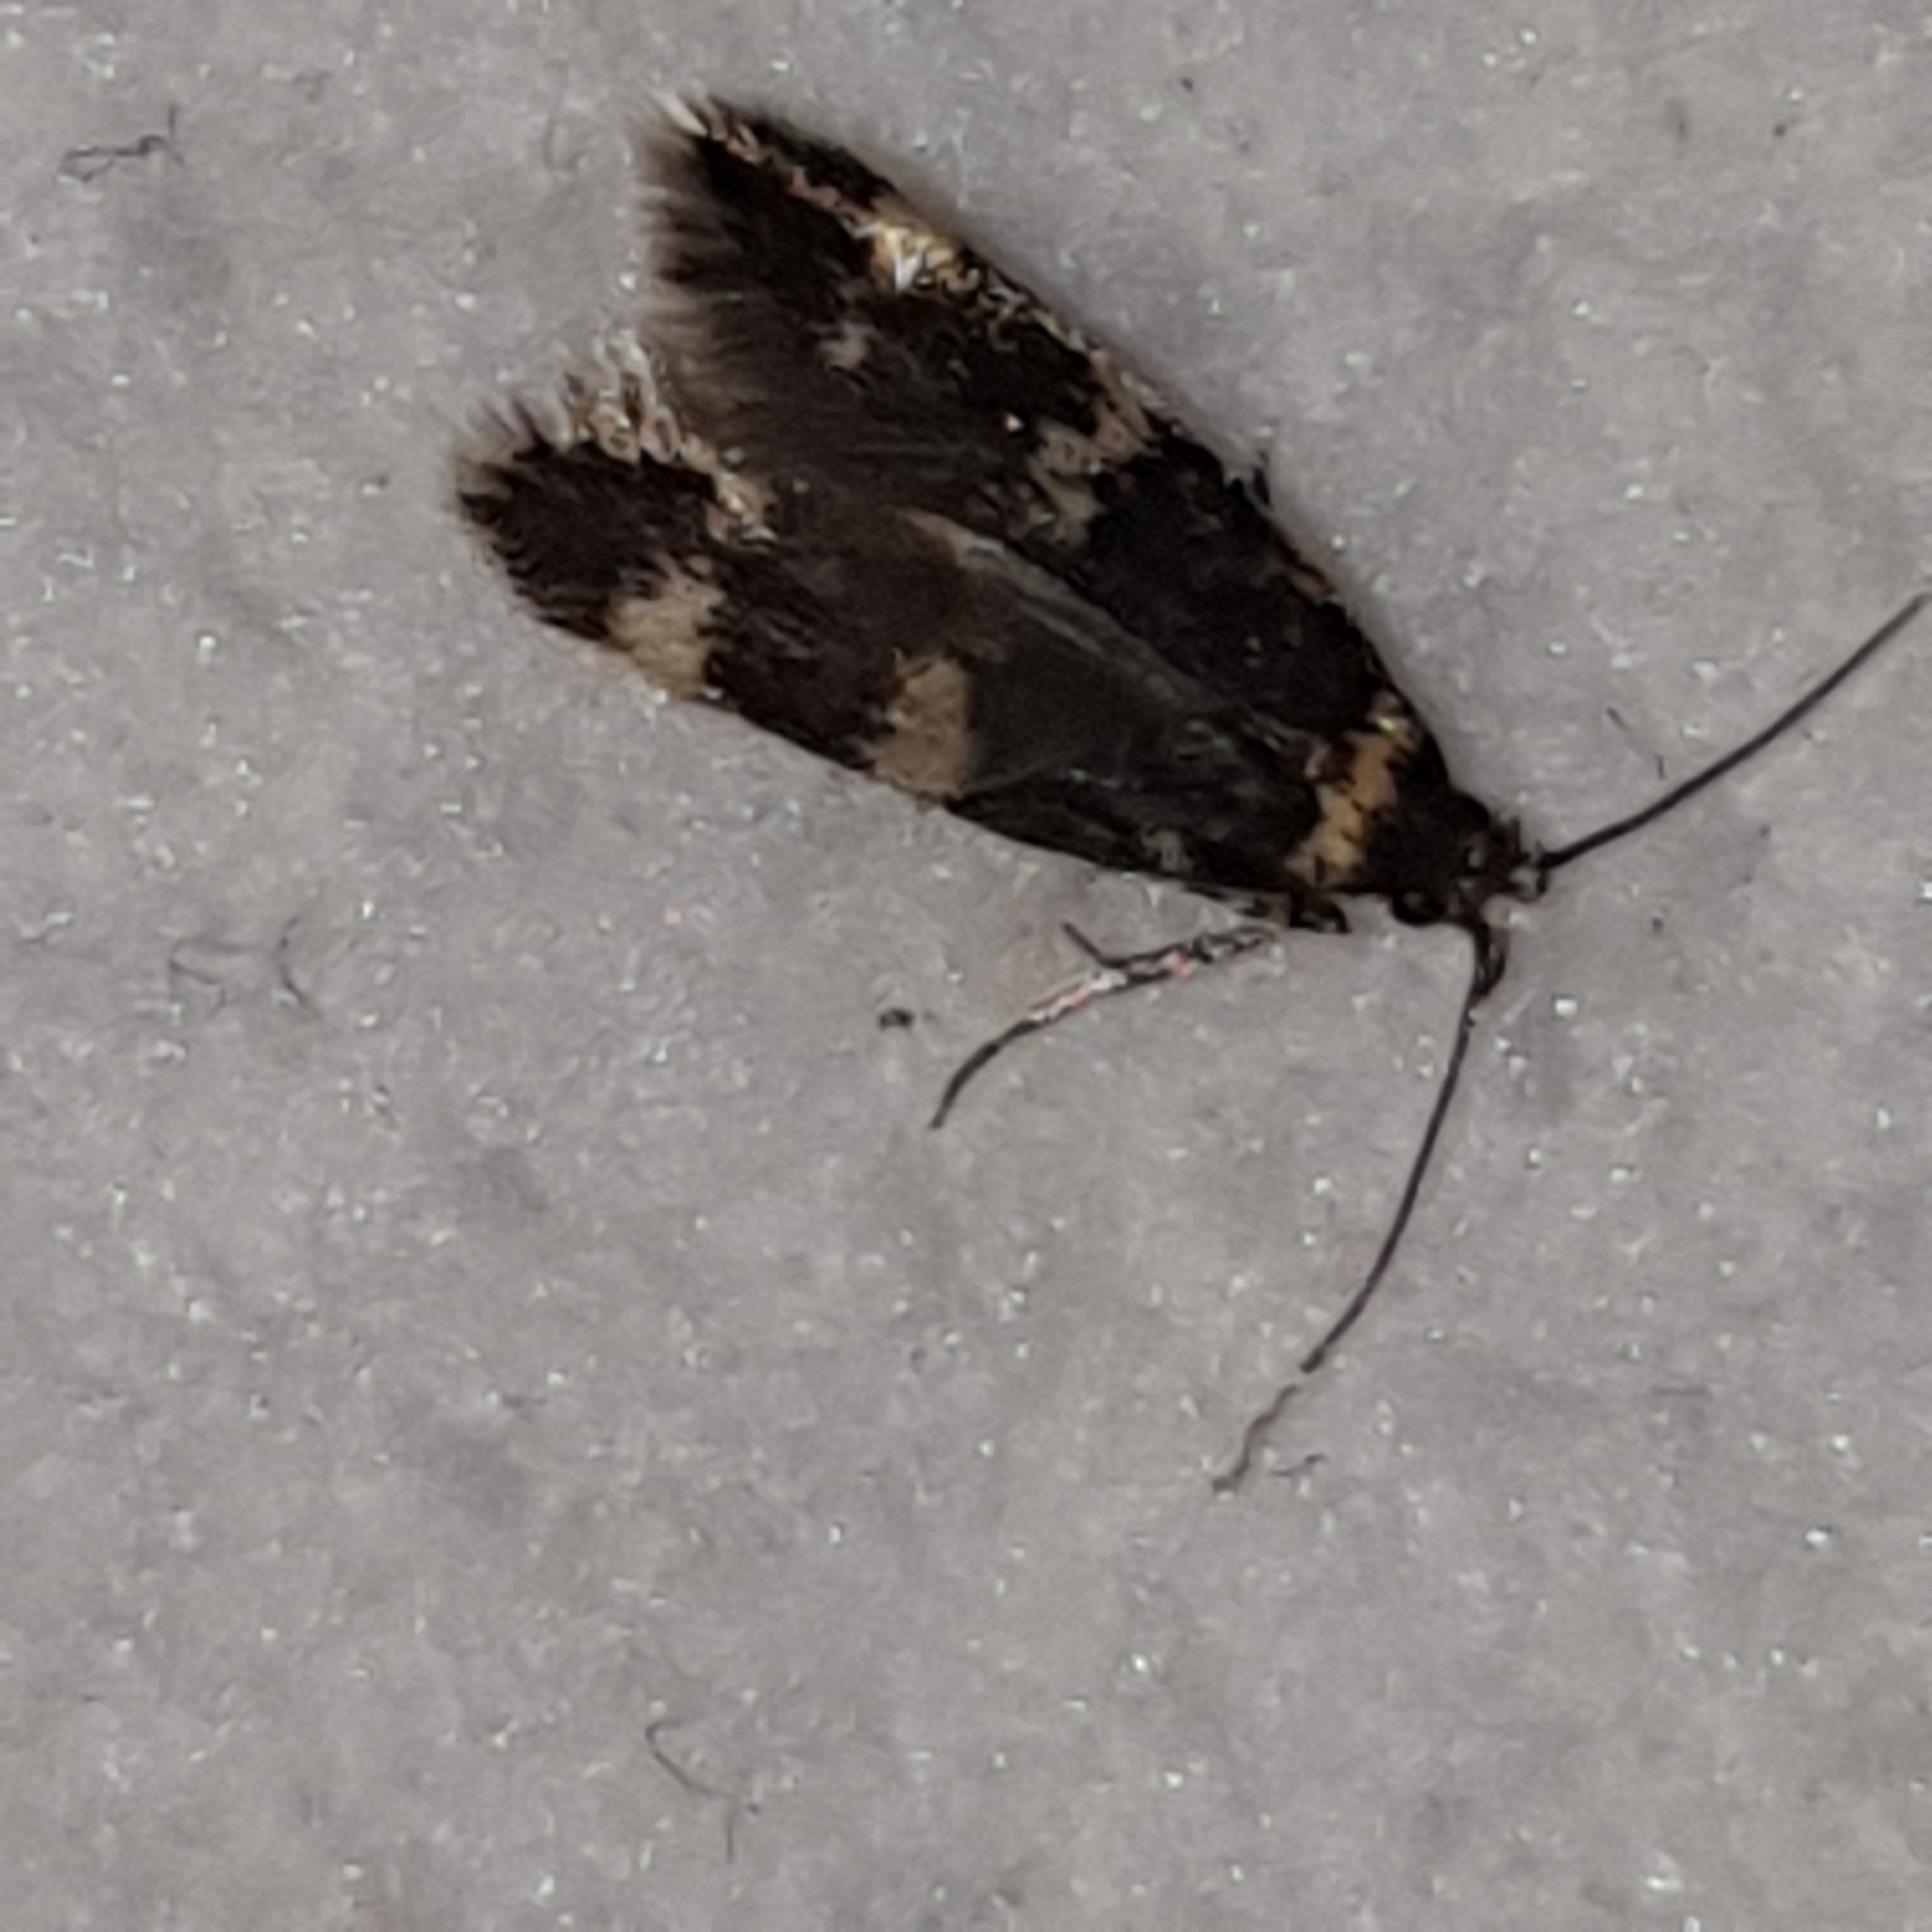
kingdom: Animalia
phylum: Arthropoda
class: Insecta
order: Lepidoptera
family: Autostichidae
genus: Oegoconia
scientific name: Oegoconia quadripuncta
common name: Four-spotted obscure
